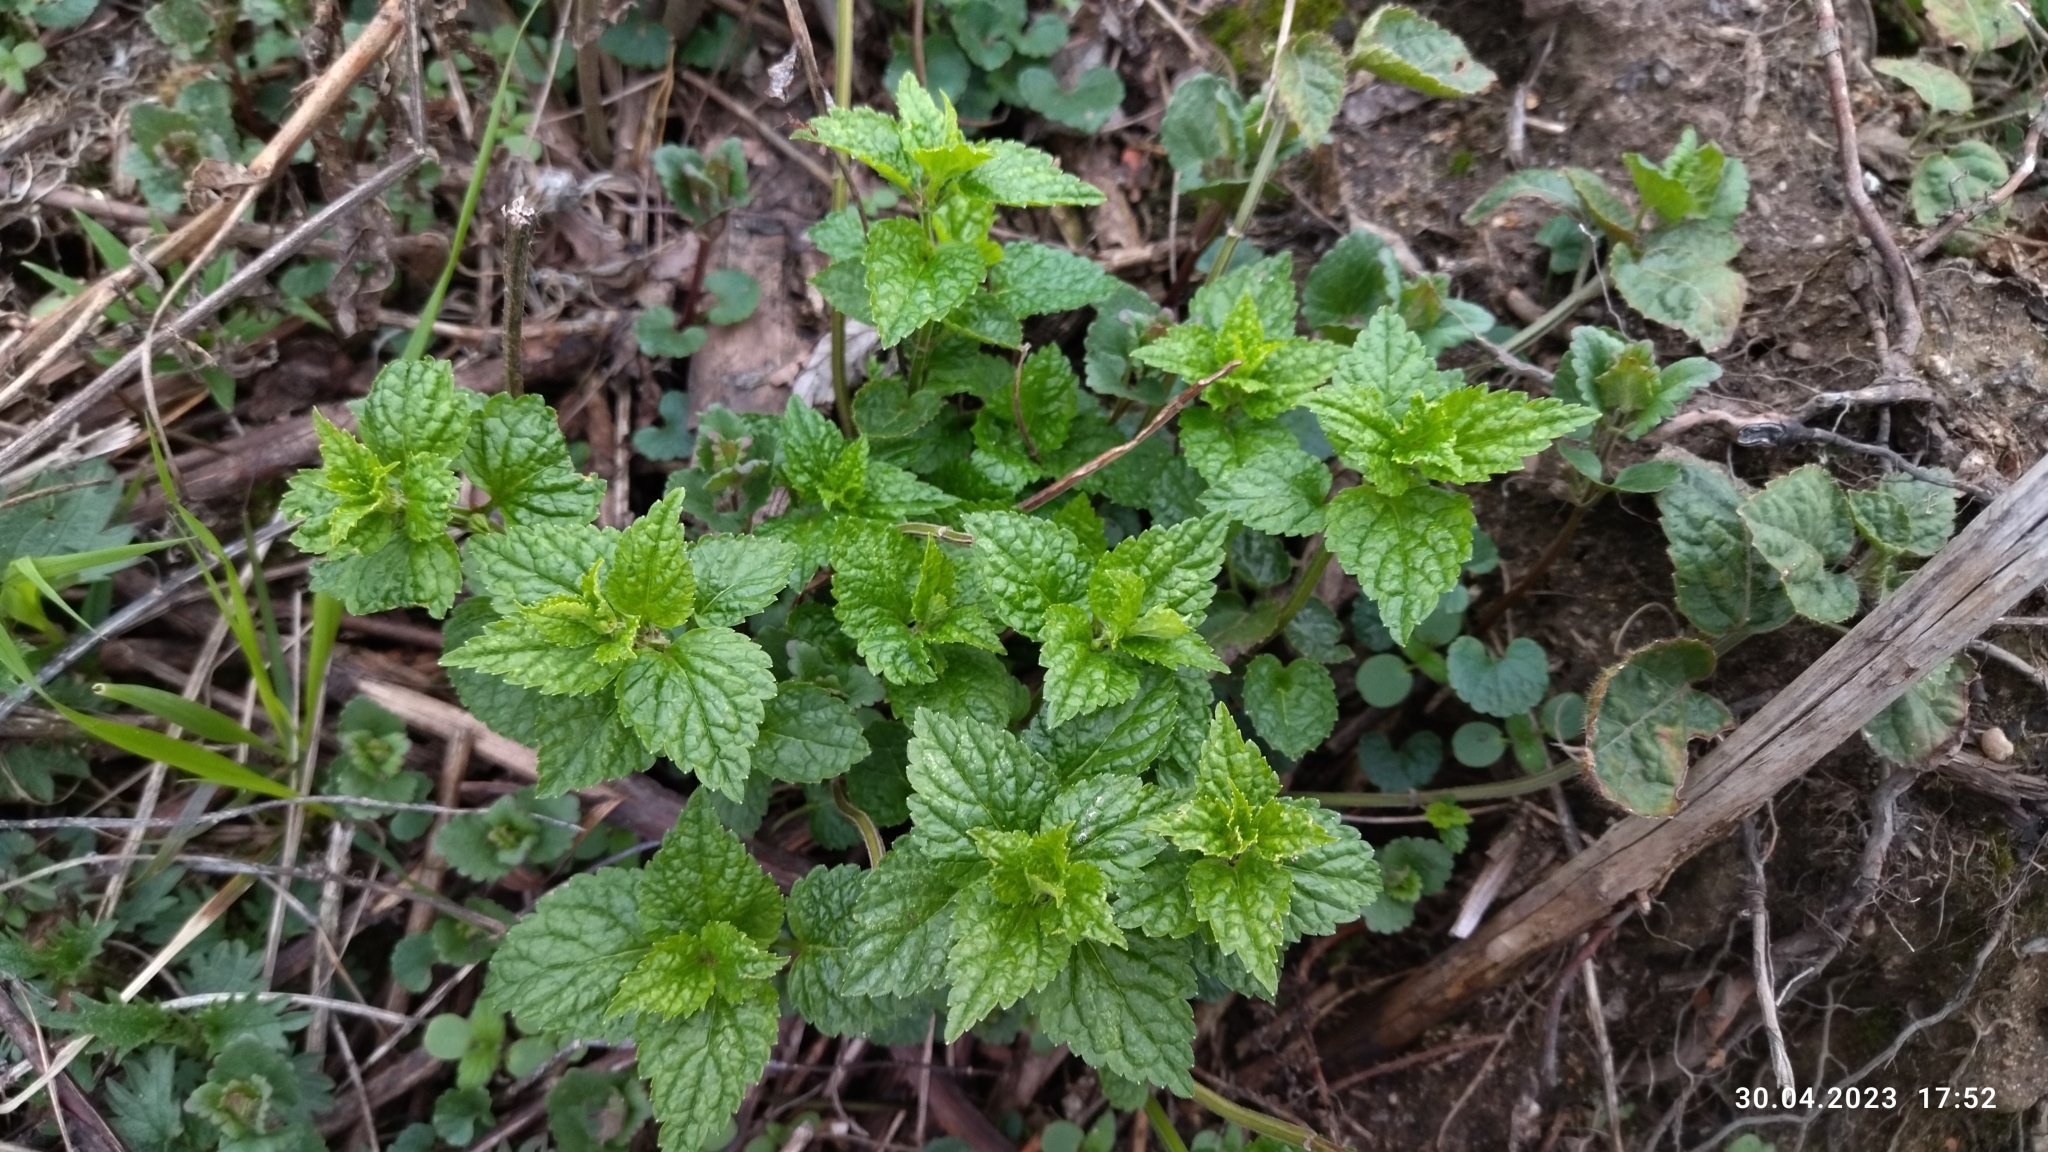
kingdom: Plantae
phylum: Tracheophyta
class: Magnoliopsida
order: Lamiales
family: Lamiaceae
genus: Lamium
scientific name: Lamium album
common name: White dead-nettle
